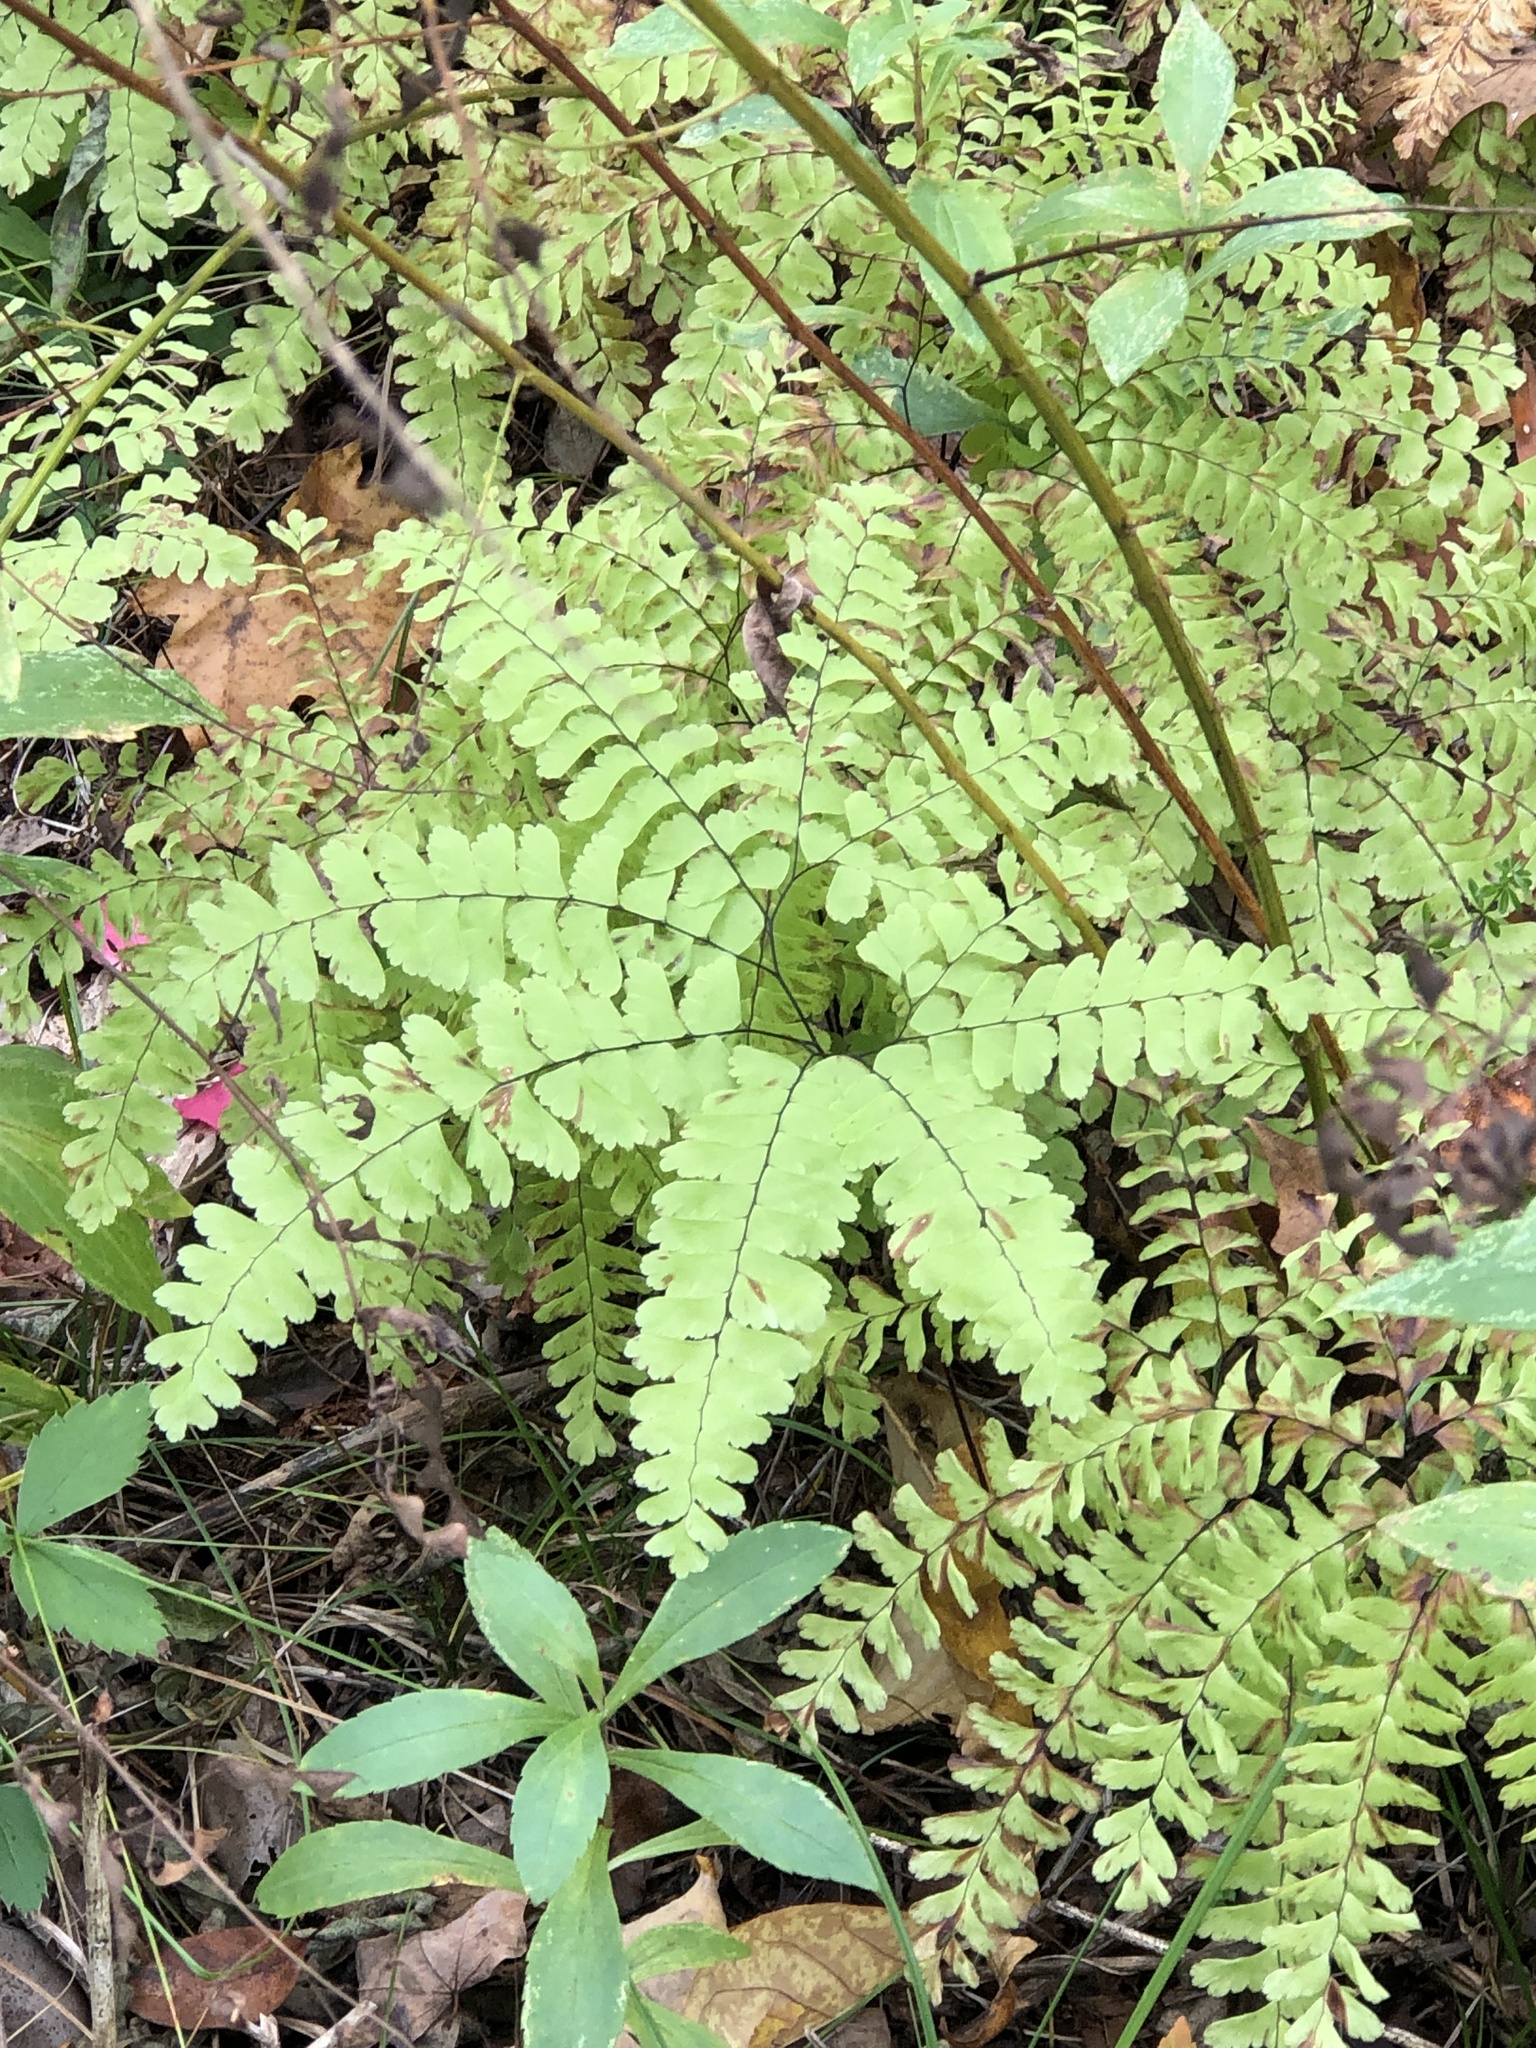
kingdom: Plantae
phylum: Tracheophyta
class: Polypodiopsida
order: Polypodiales
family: Pteridaceae
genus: Adiantum
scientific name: Adiantum pedatum
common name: Five-finger fern
